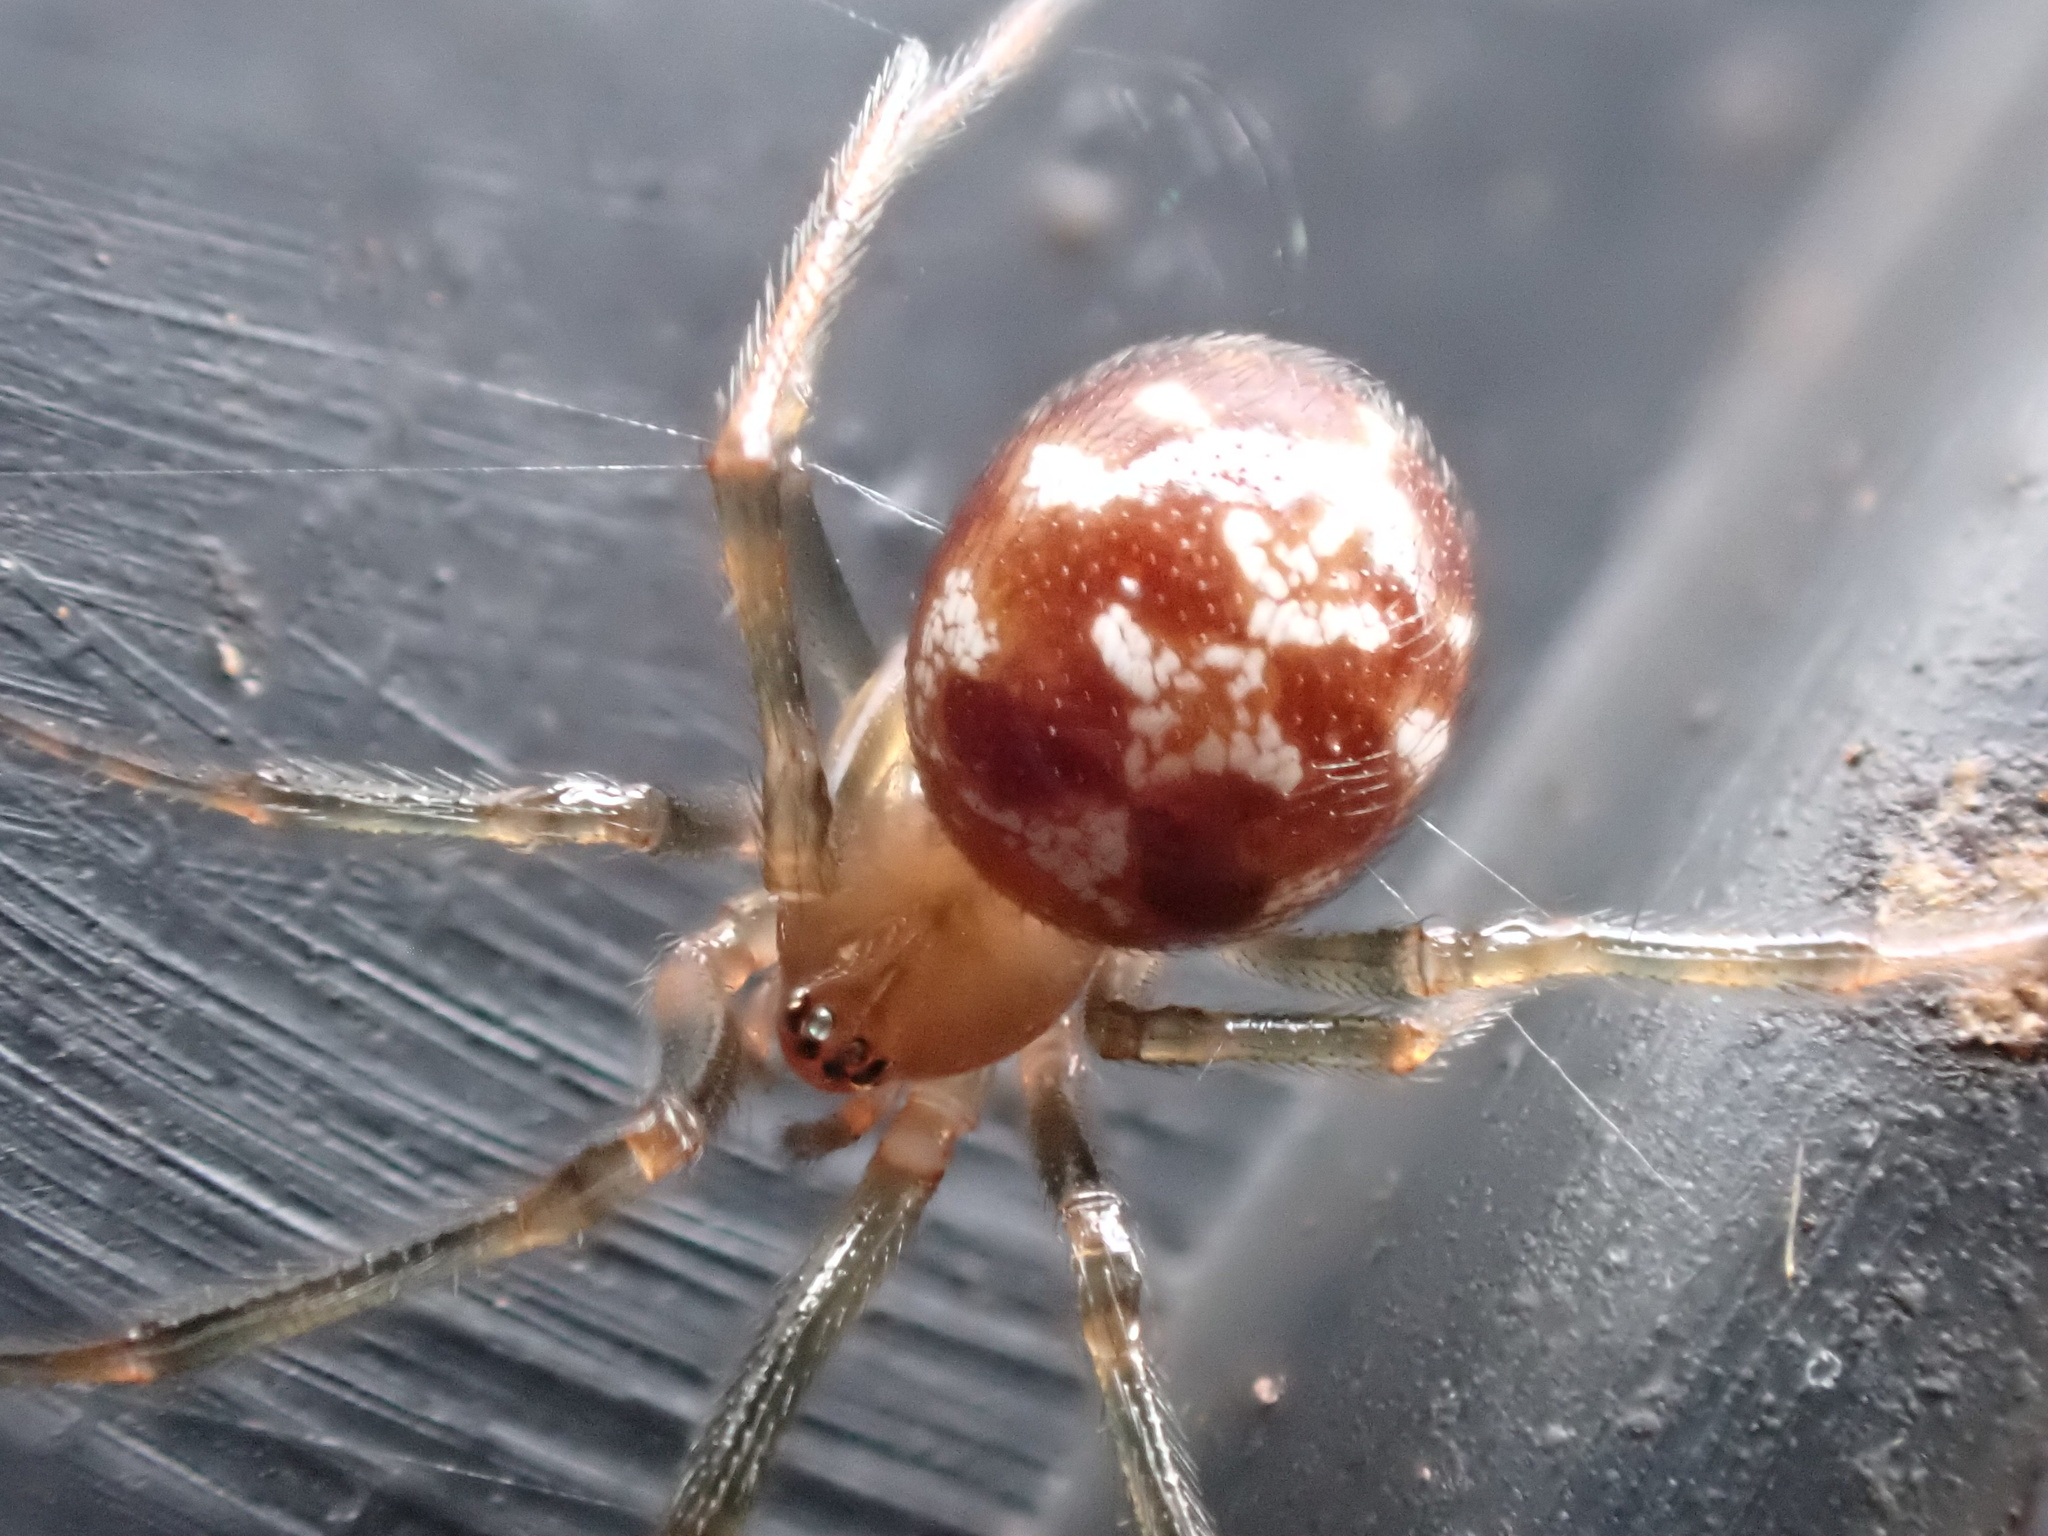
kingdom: Animalia
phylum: Arthropoda
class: Arachnida
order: Araneae
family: Theridiidae
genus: Steatoda
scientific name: Steatoda triangulosa
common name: Triangulate bud spider
